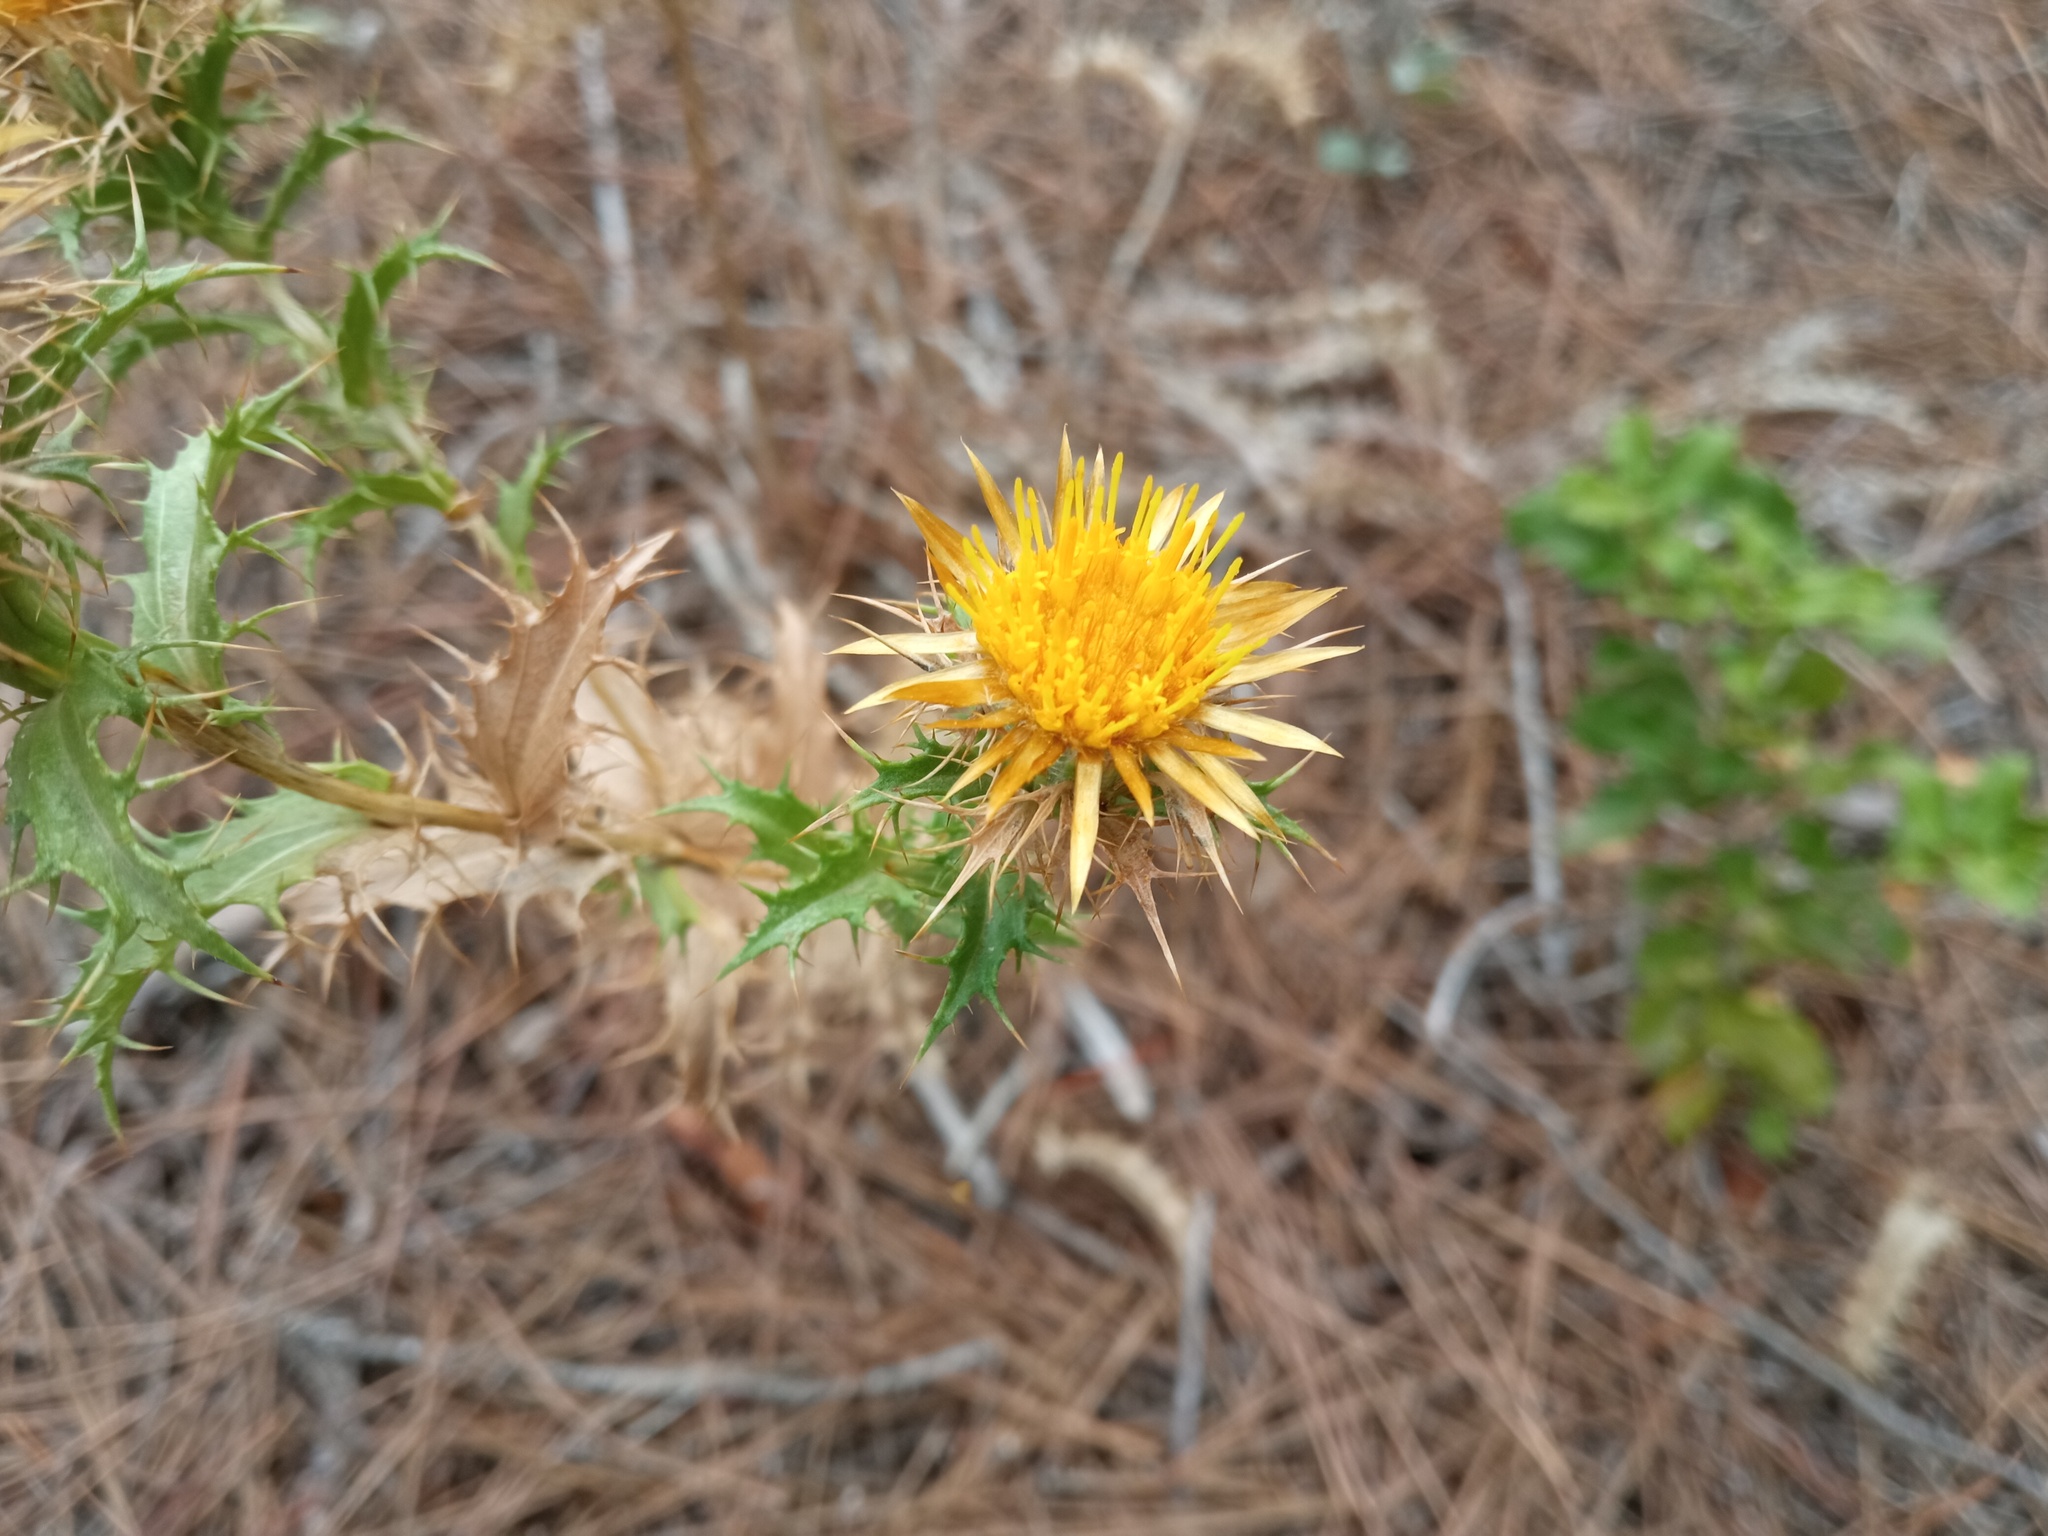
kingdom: Plantae
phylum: Tracheophyta
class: Magnoliopsida
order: Asterales
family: Asteraceae
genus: Carlina
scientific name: Carlina hispanica
